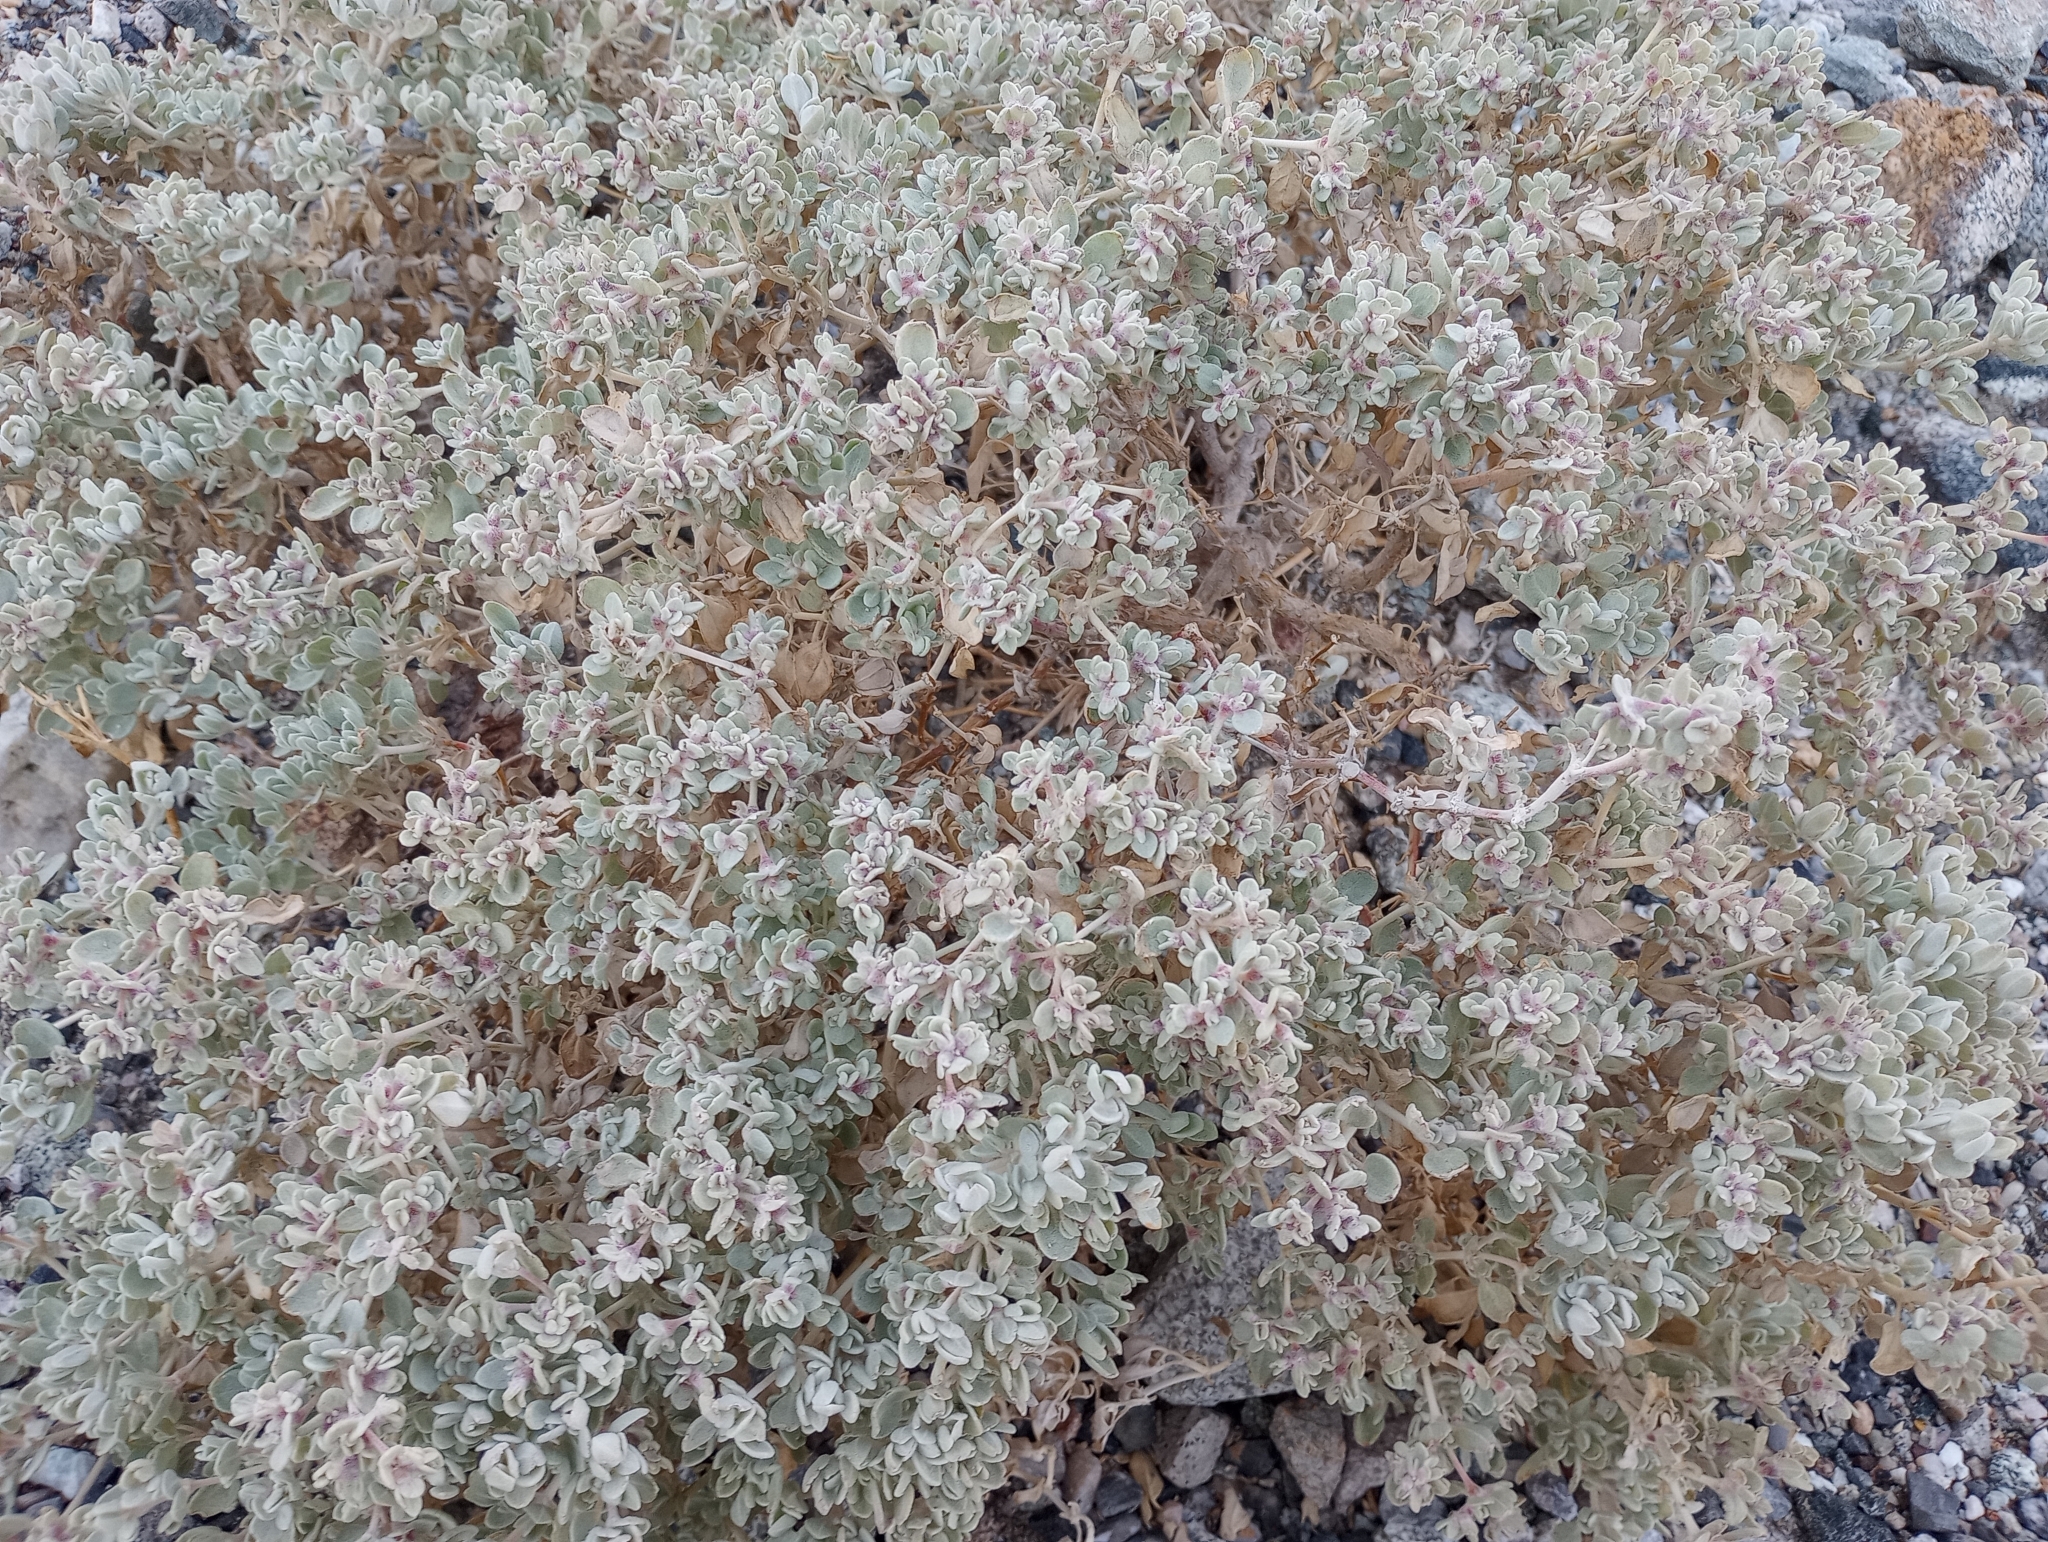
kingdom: Plantae
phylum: Tracheophyta
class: Magnoliopsida
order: Caryophyllales
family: Amaranthaceae
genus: Tidestromia
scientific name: Tidestromia suffruticosa
